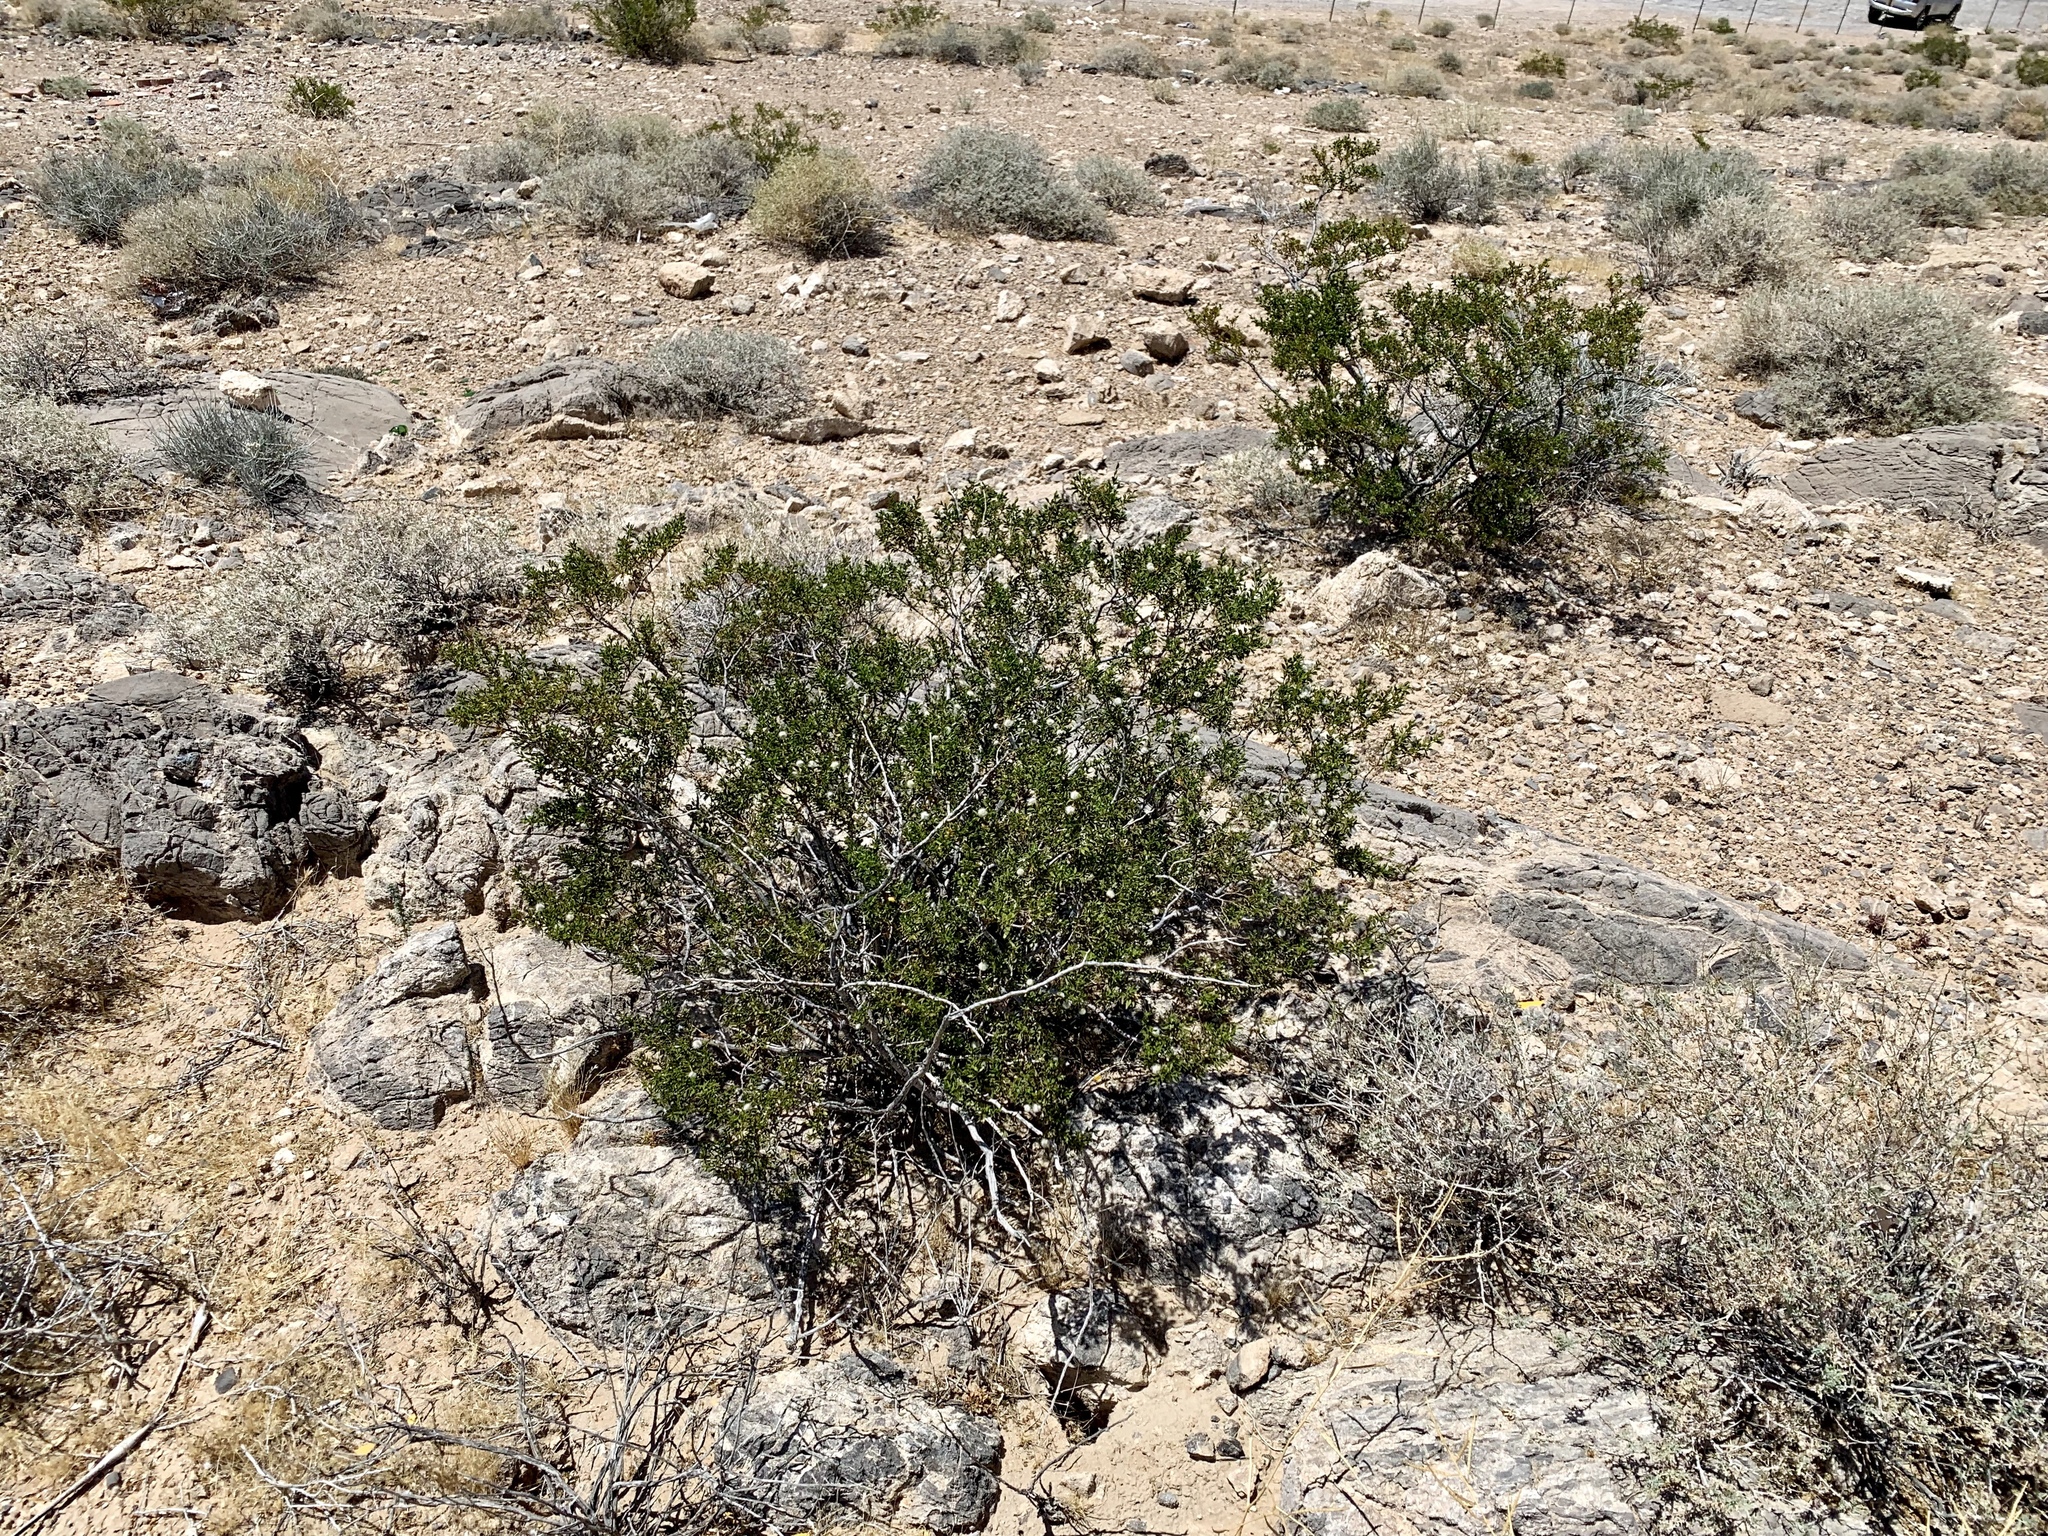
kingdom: Plantae
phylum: Tracheophyta
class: Magnoliopsida
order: Zygophyllales
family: Zygophyllaceae
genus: Larrea
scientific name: Larrea tridentata
